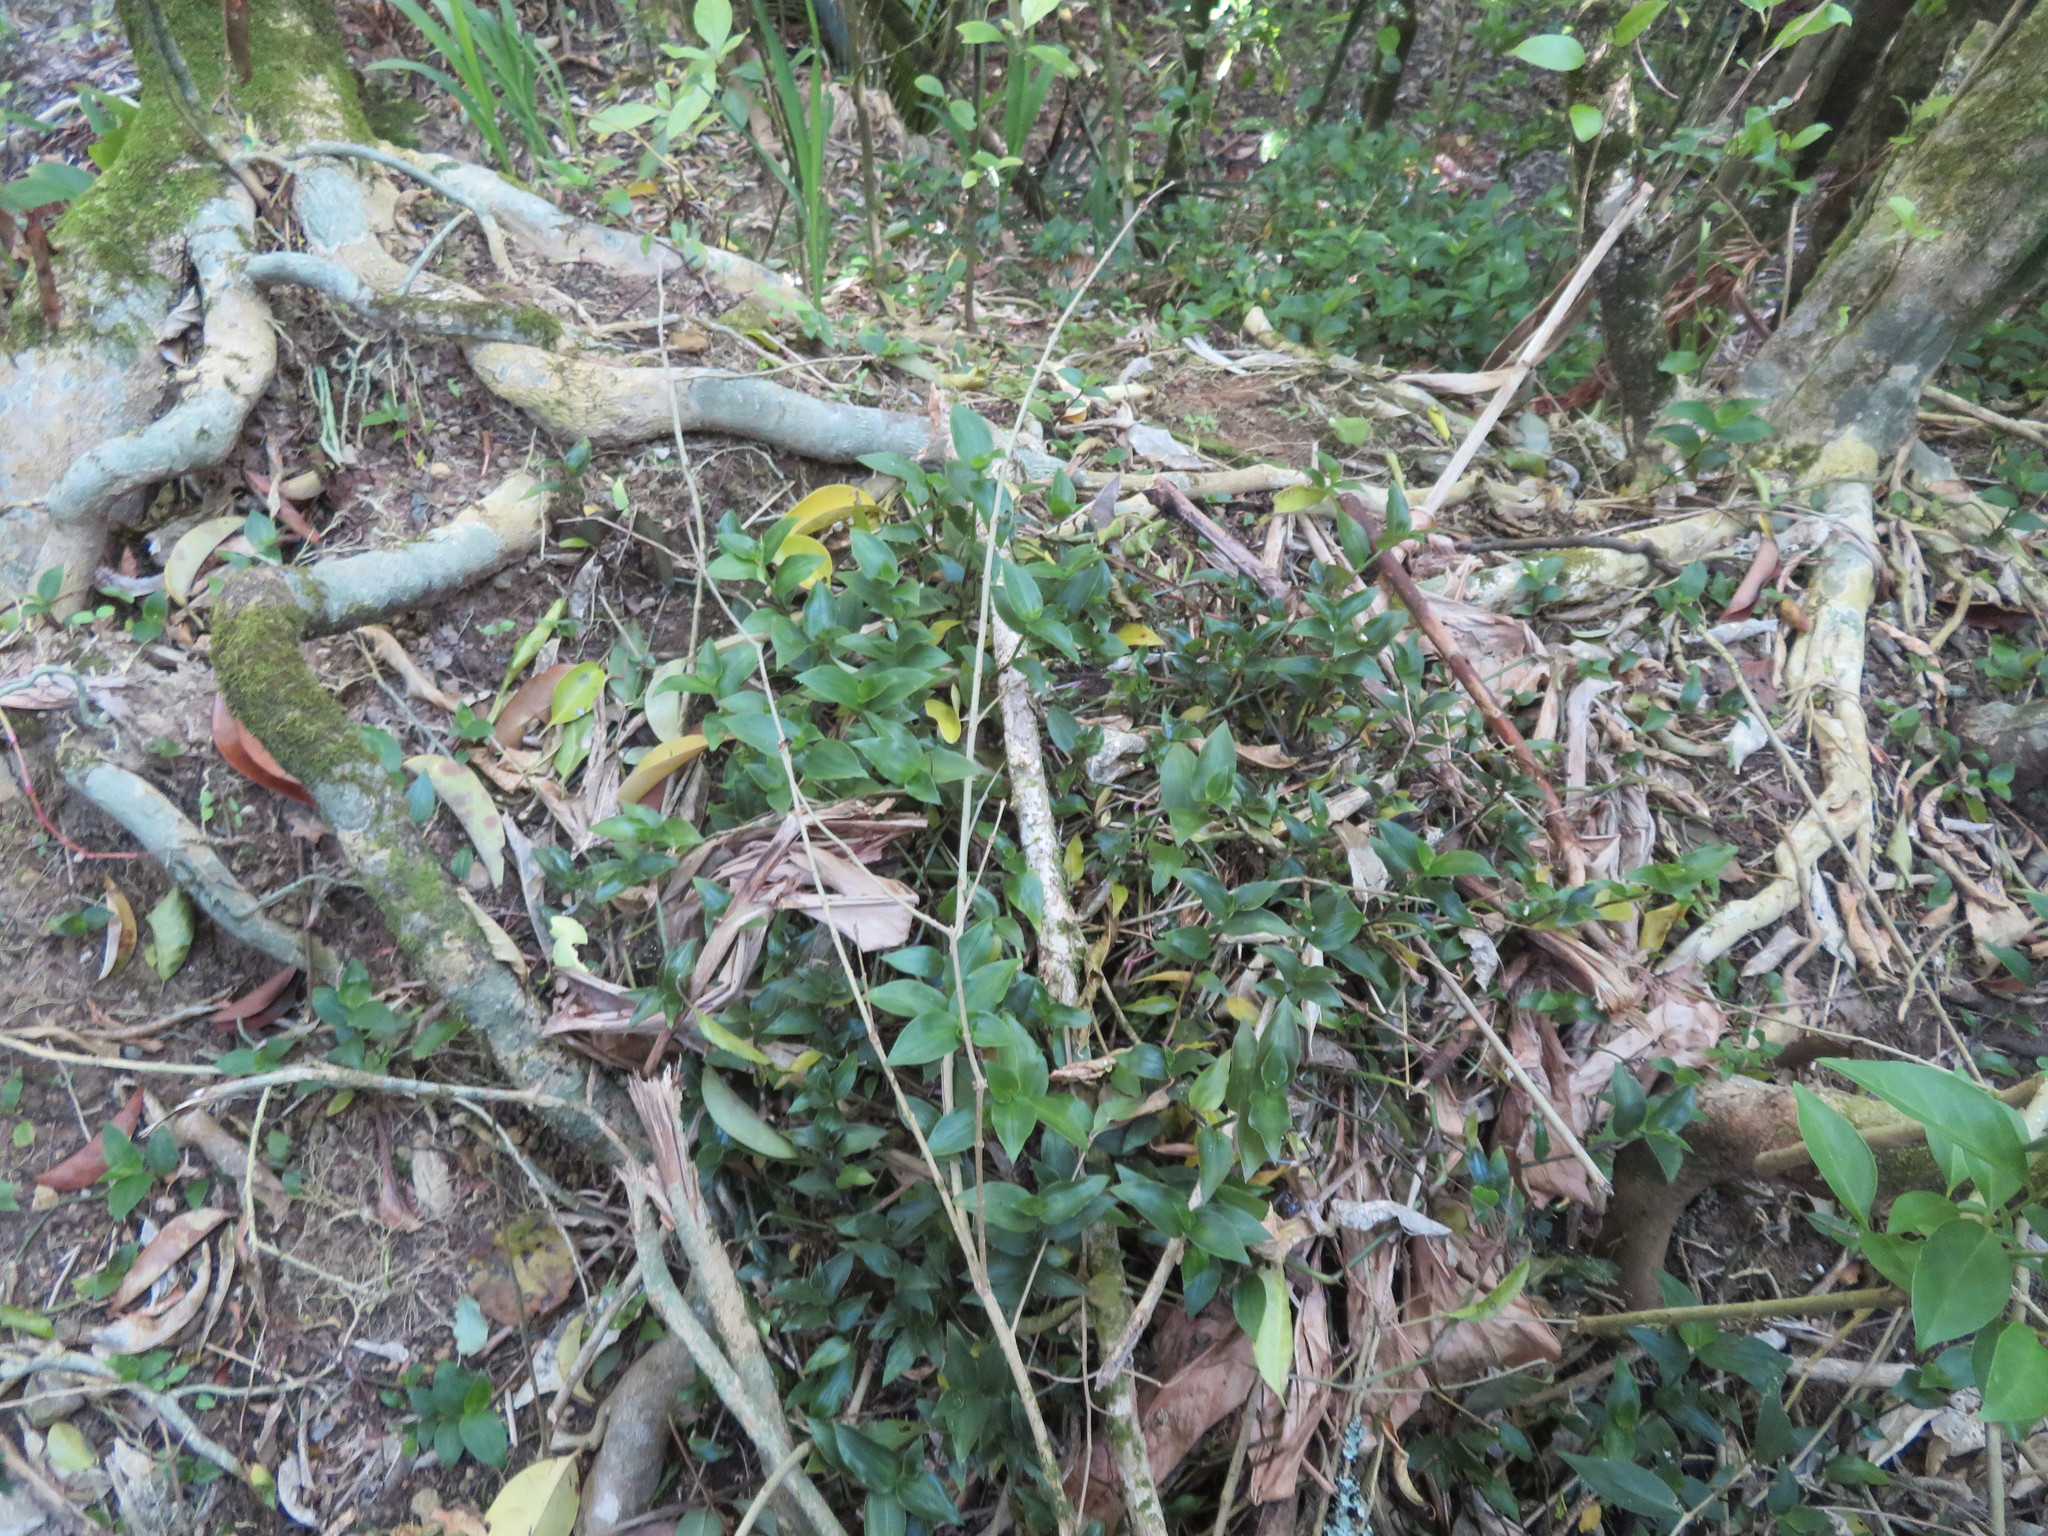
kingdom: Plantae
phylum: Tracheophyta
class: Liliopsida
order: Commelinales
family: Commelinaceae
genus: Tradescantia
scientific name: Tradescantia fluminensis
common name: Wandering-jew
